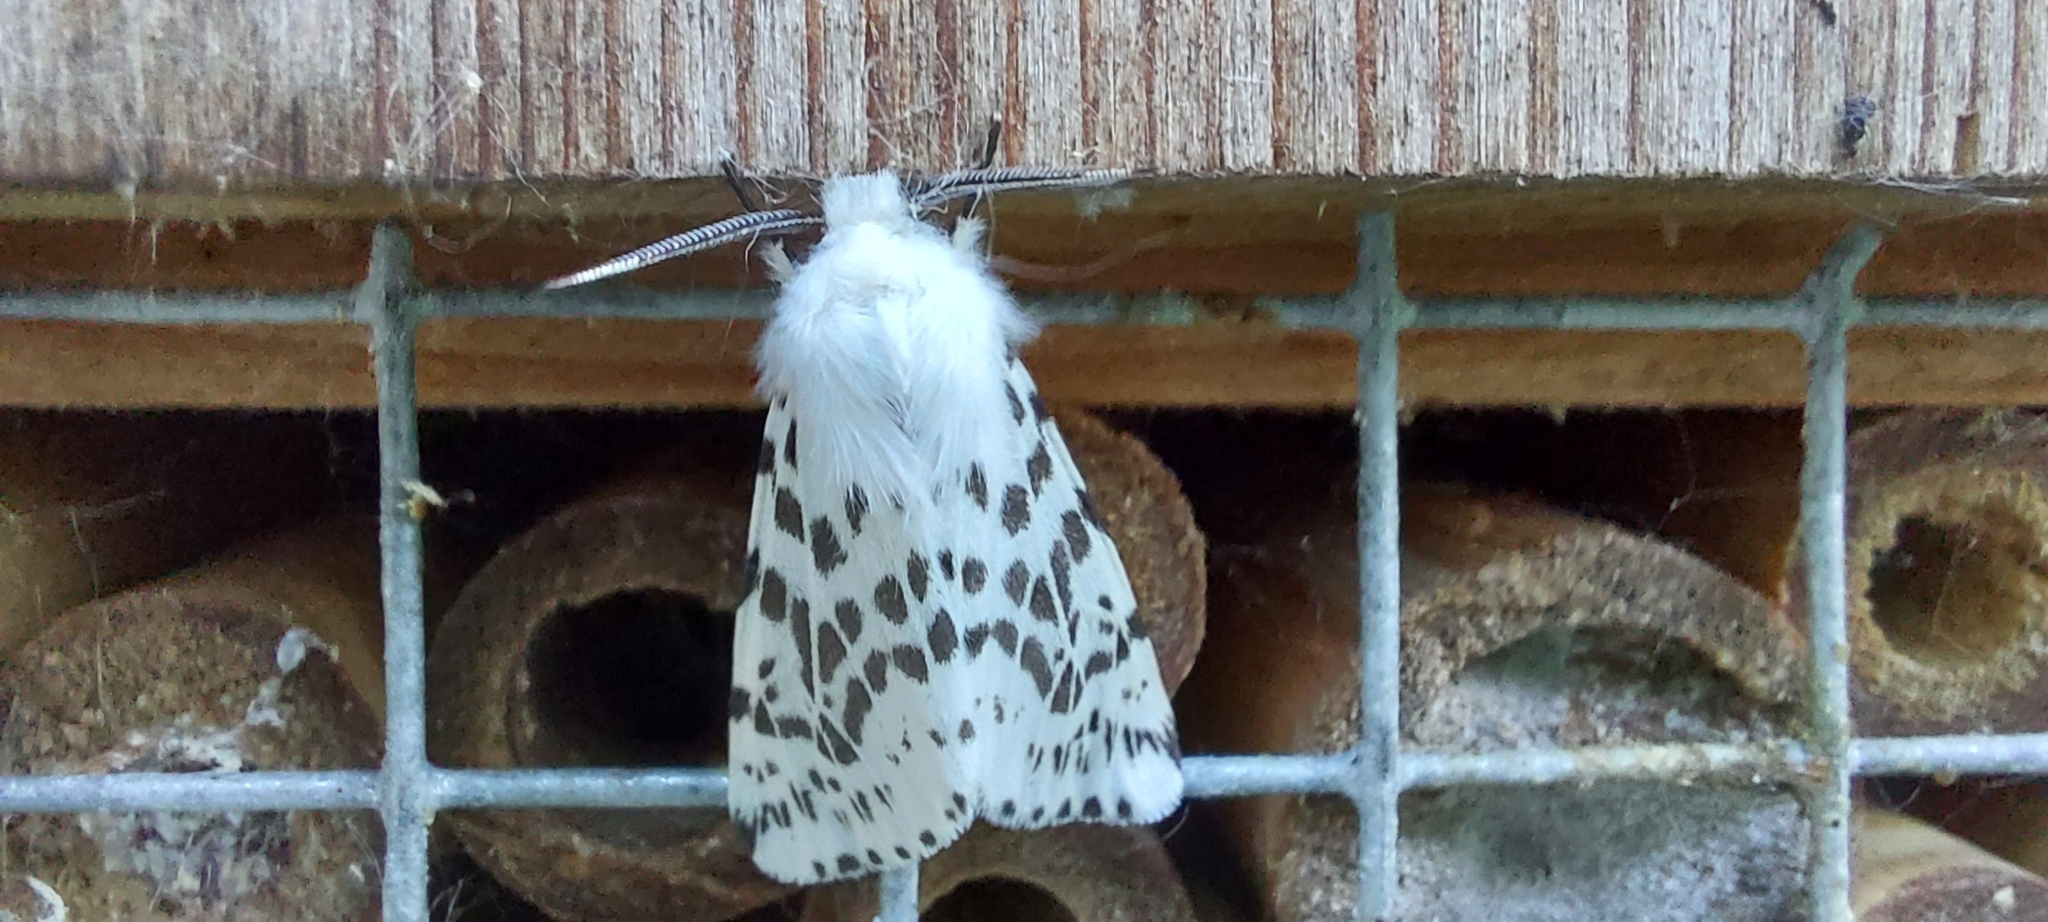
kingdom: Animalia
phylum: Arthropoda
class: Insecta
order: Lepidoptera
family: Erebidae
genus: Hyphantria
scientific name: Hyphantria cunea
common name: American white moth
